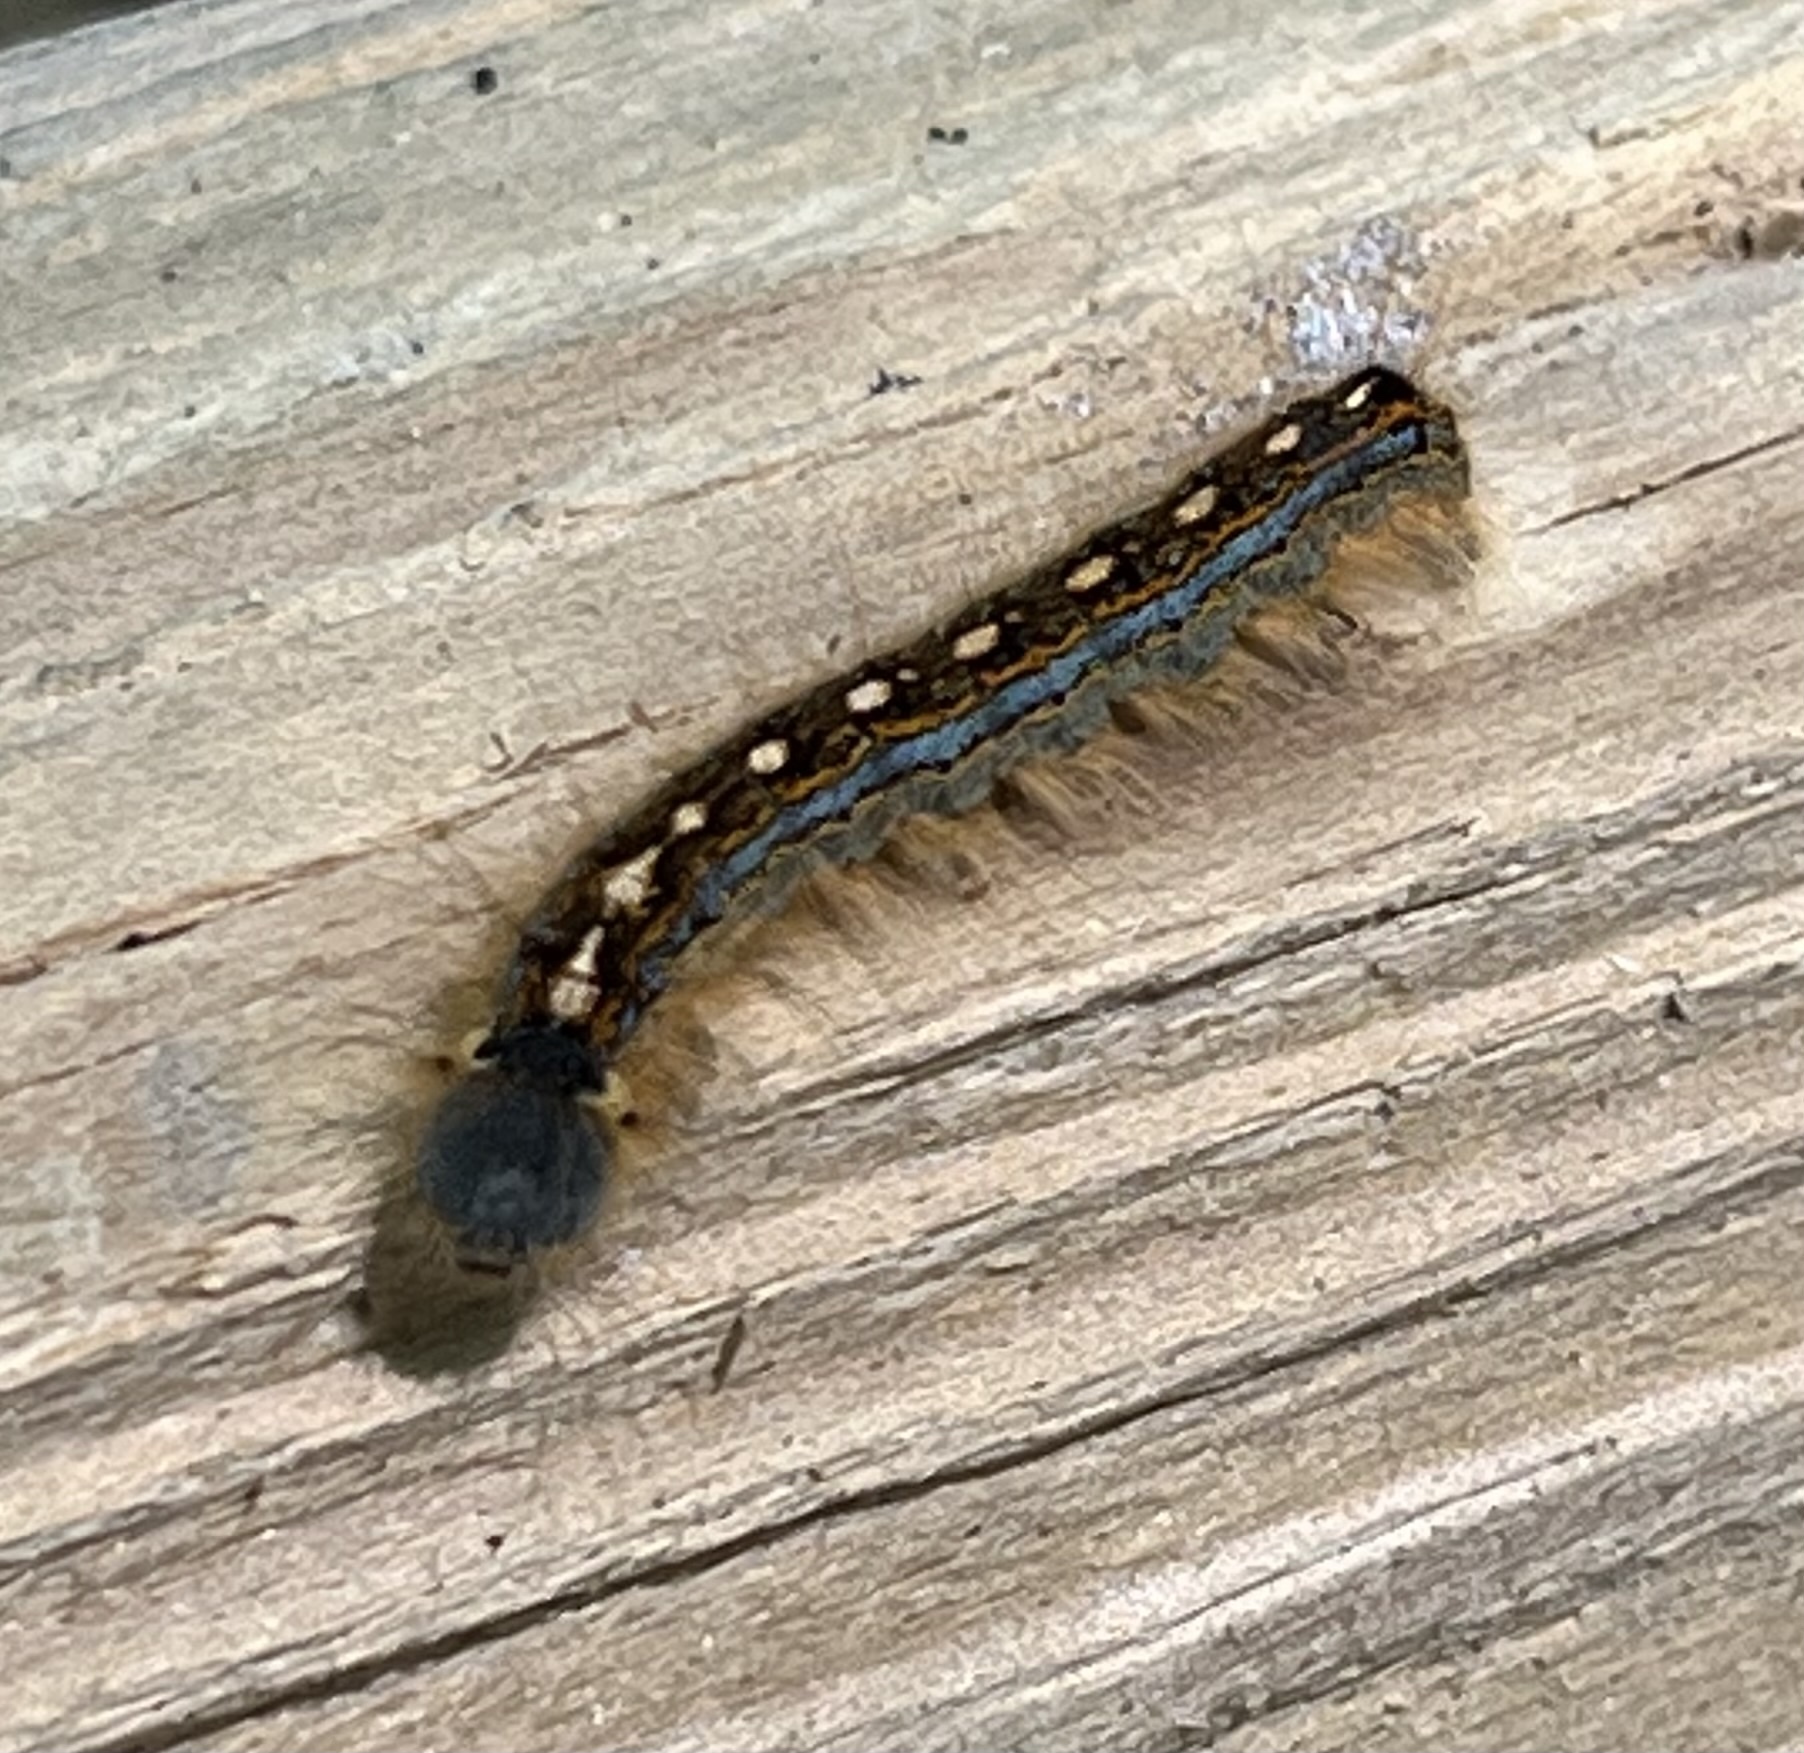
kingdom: Animalia
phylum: Arthropoda
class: Insecta
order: Lepidoptera
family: Lasiocampidae
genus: Malacosoma
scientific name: Malacosoma disstria
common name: Forest tent caterpillar
